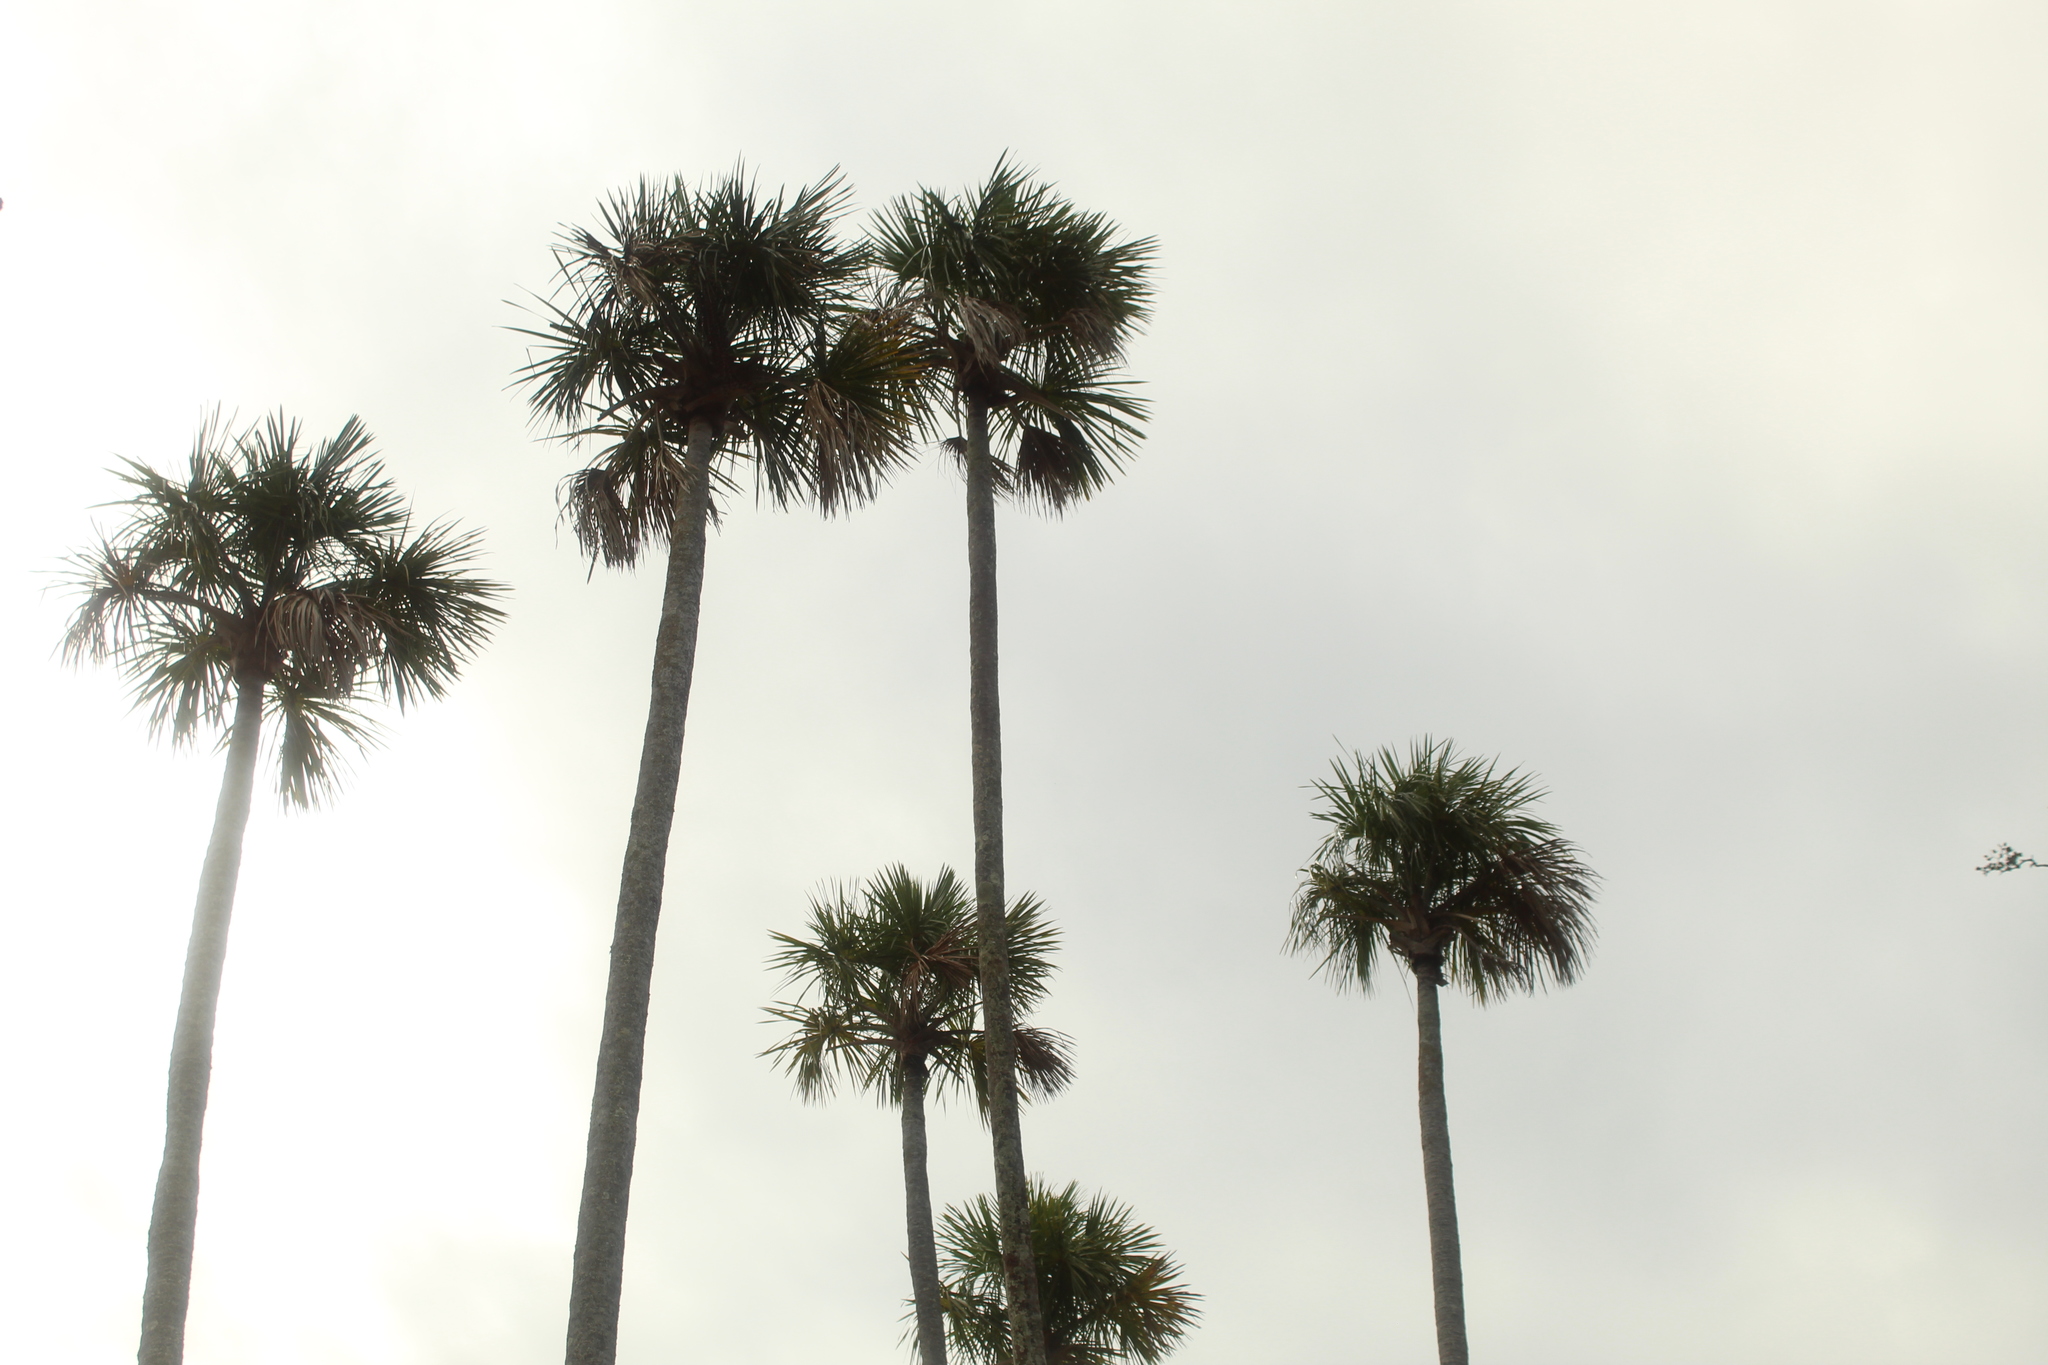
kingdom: Plantae
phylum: Tracheophyta
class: Liliopsida
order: Arecales
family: Arecaceae
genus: Mauritia
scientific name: Mauritia flexuosa
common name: Tree-of-life
